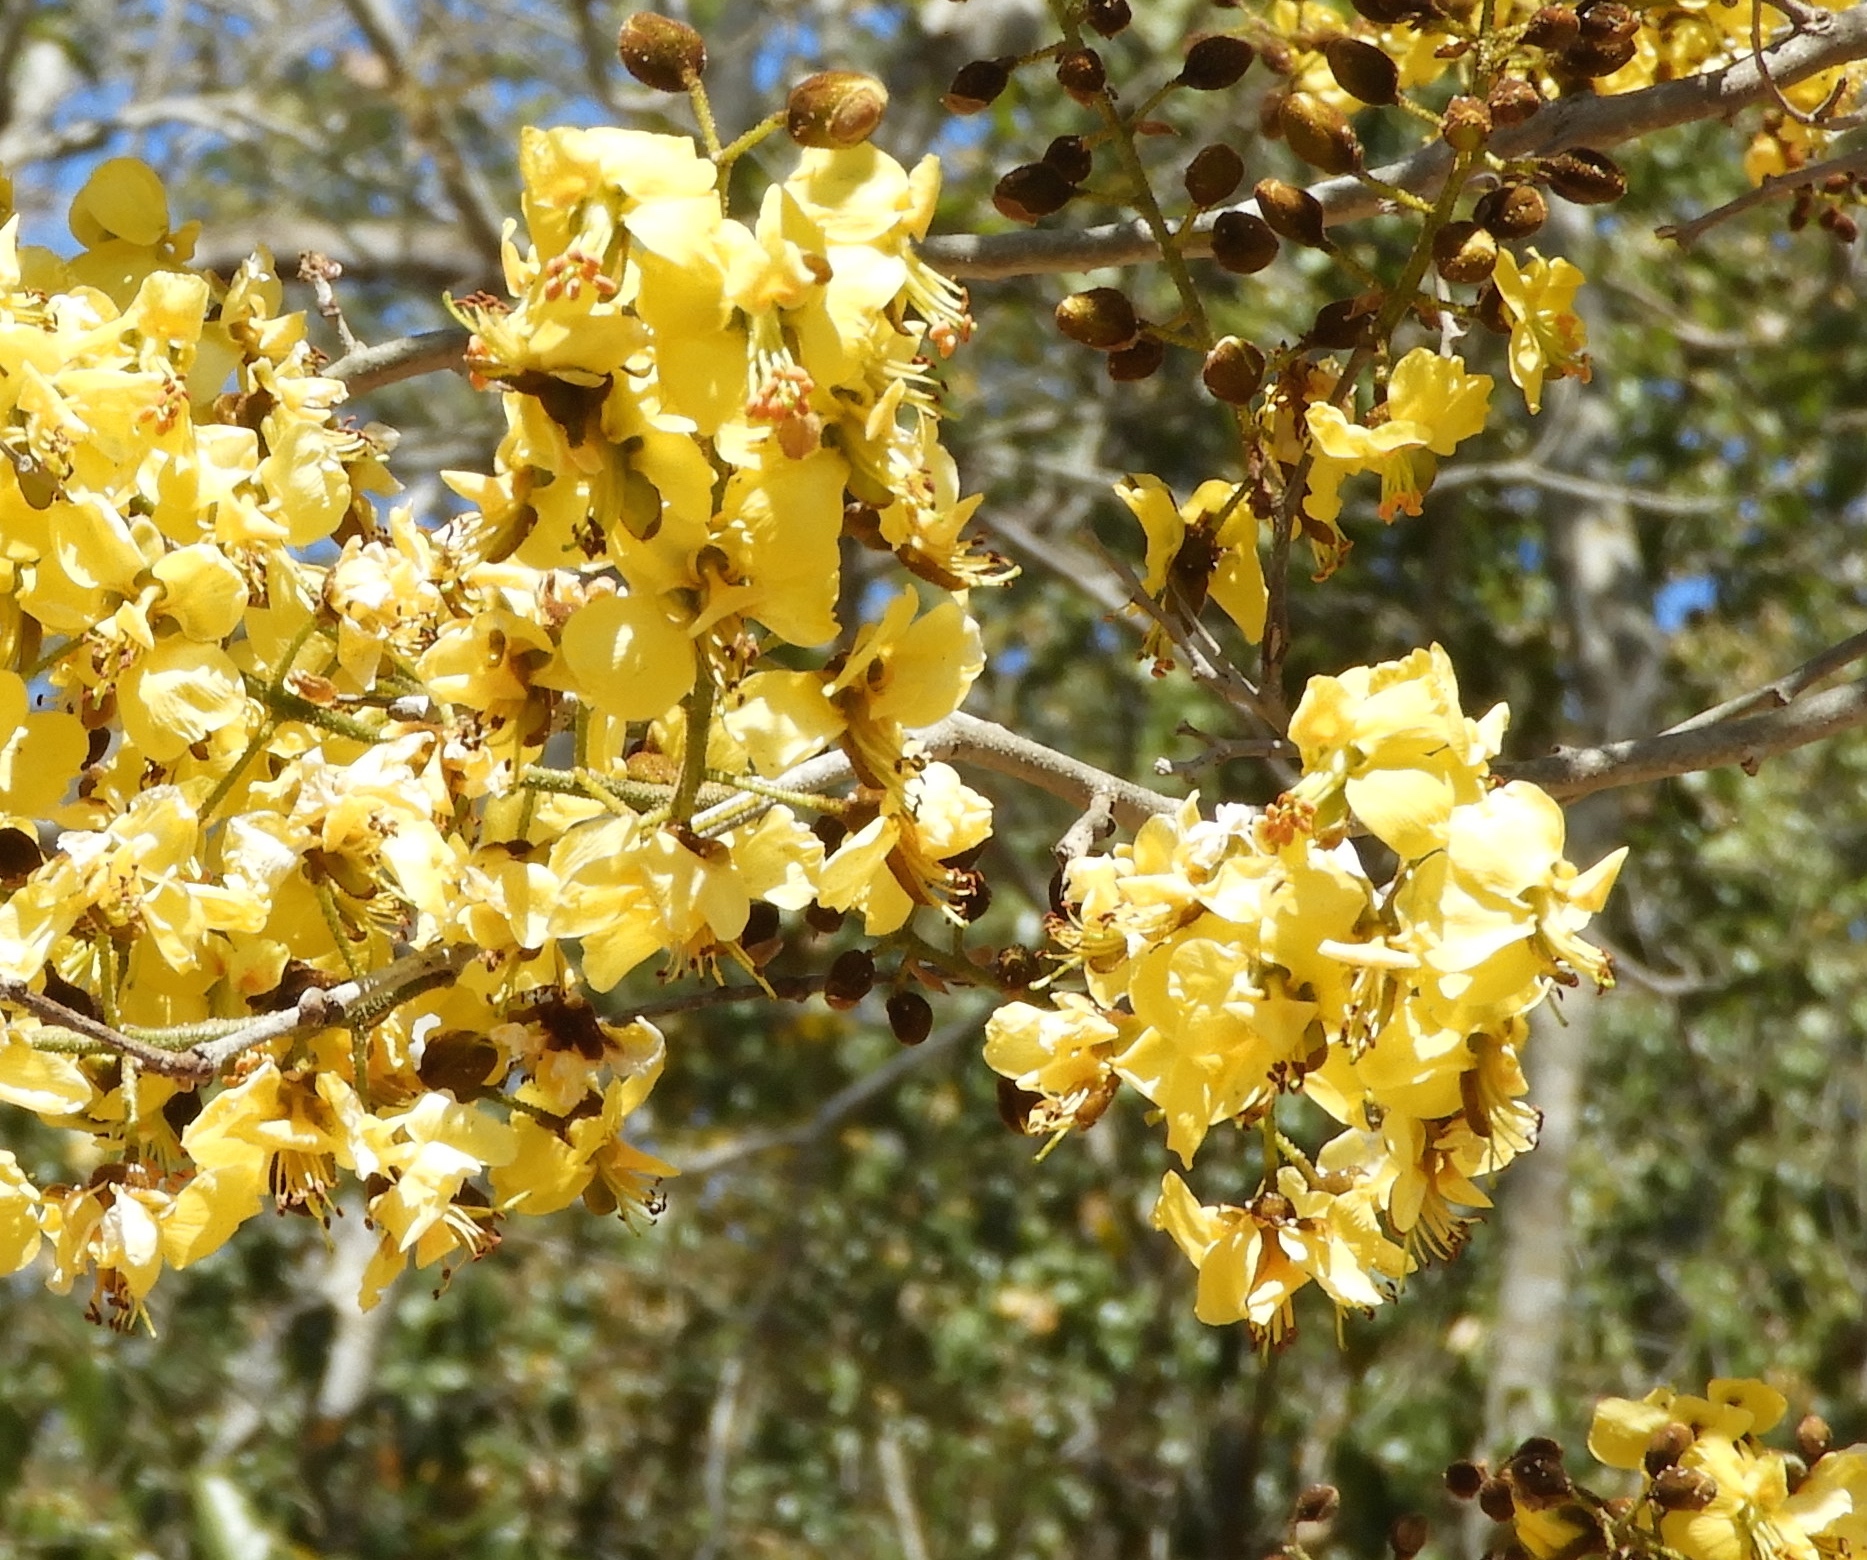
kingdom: Plantae
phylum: Tracheophyta
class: Magnoliopsida
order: Fabales
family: Fabaceae
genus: Cenostigma
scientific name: Cenostigma eriostachys
